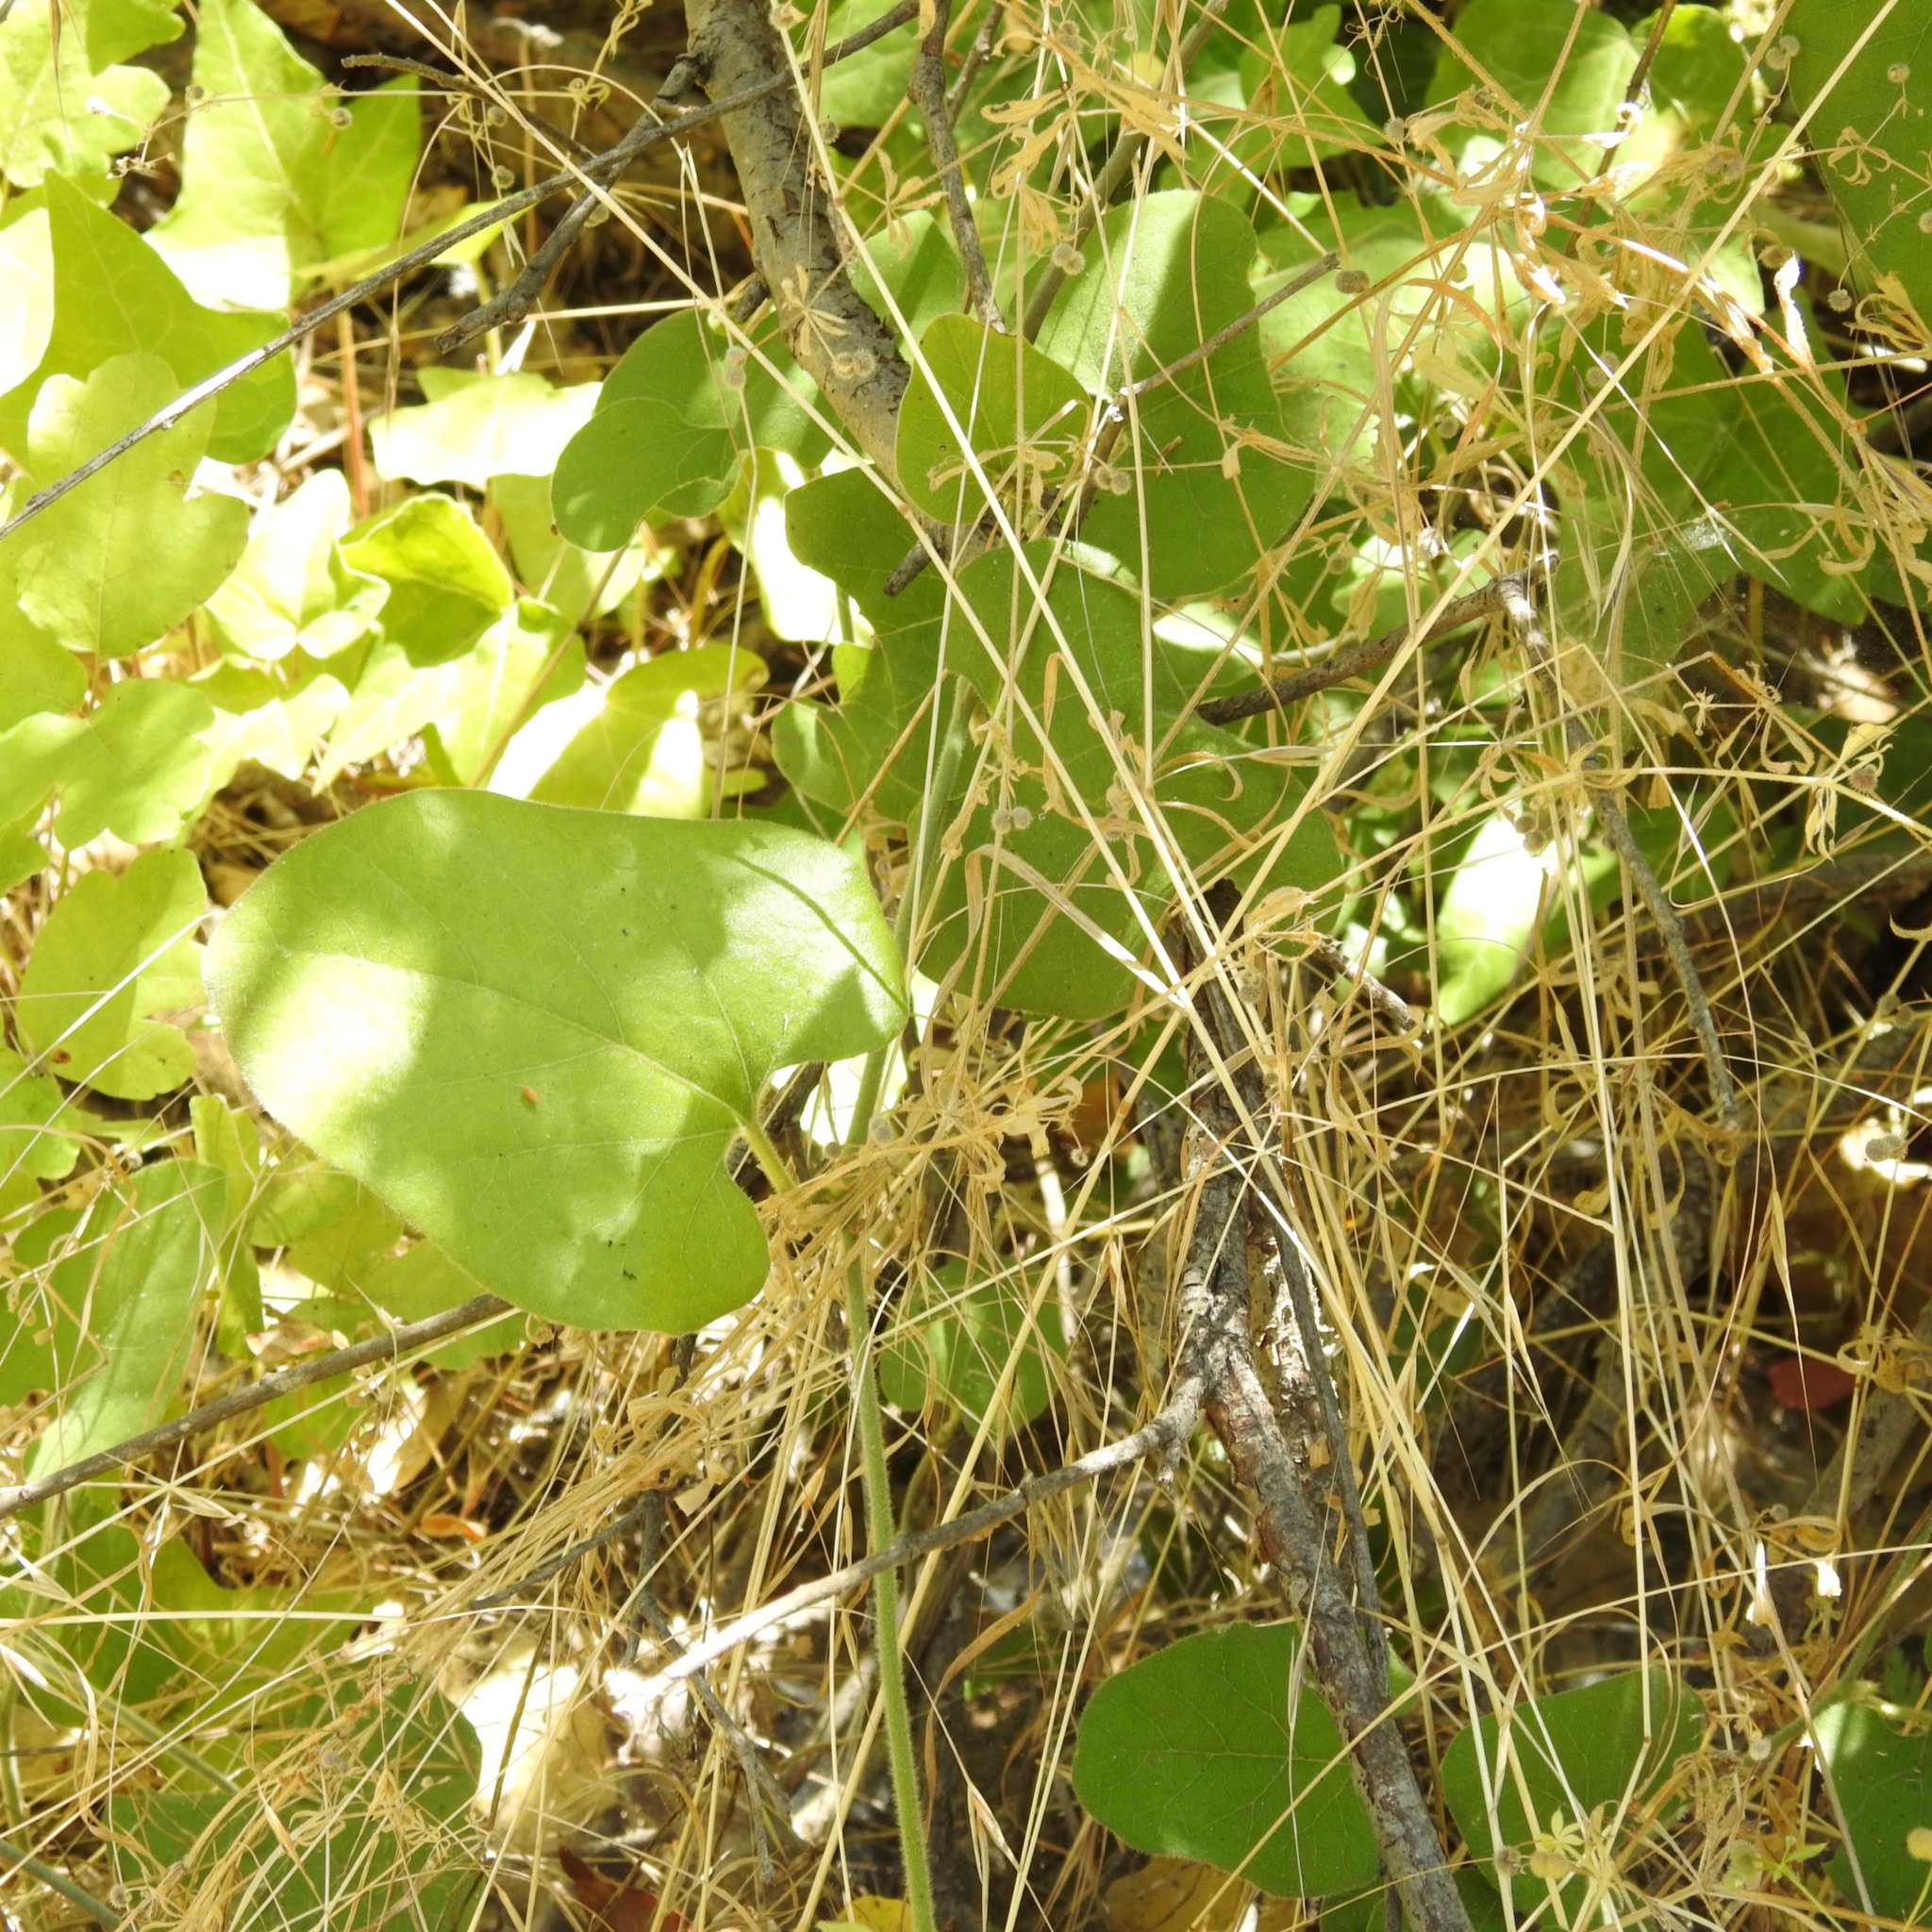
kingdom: Plantae
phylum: Tracheophyta
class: Magnoliopsida
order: Piperales
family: Aristolochiaceae
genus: Isotrema
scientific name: Isotrema californicum
